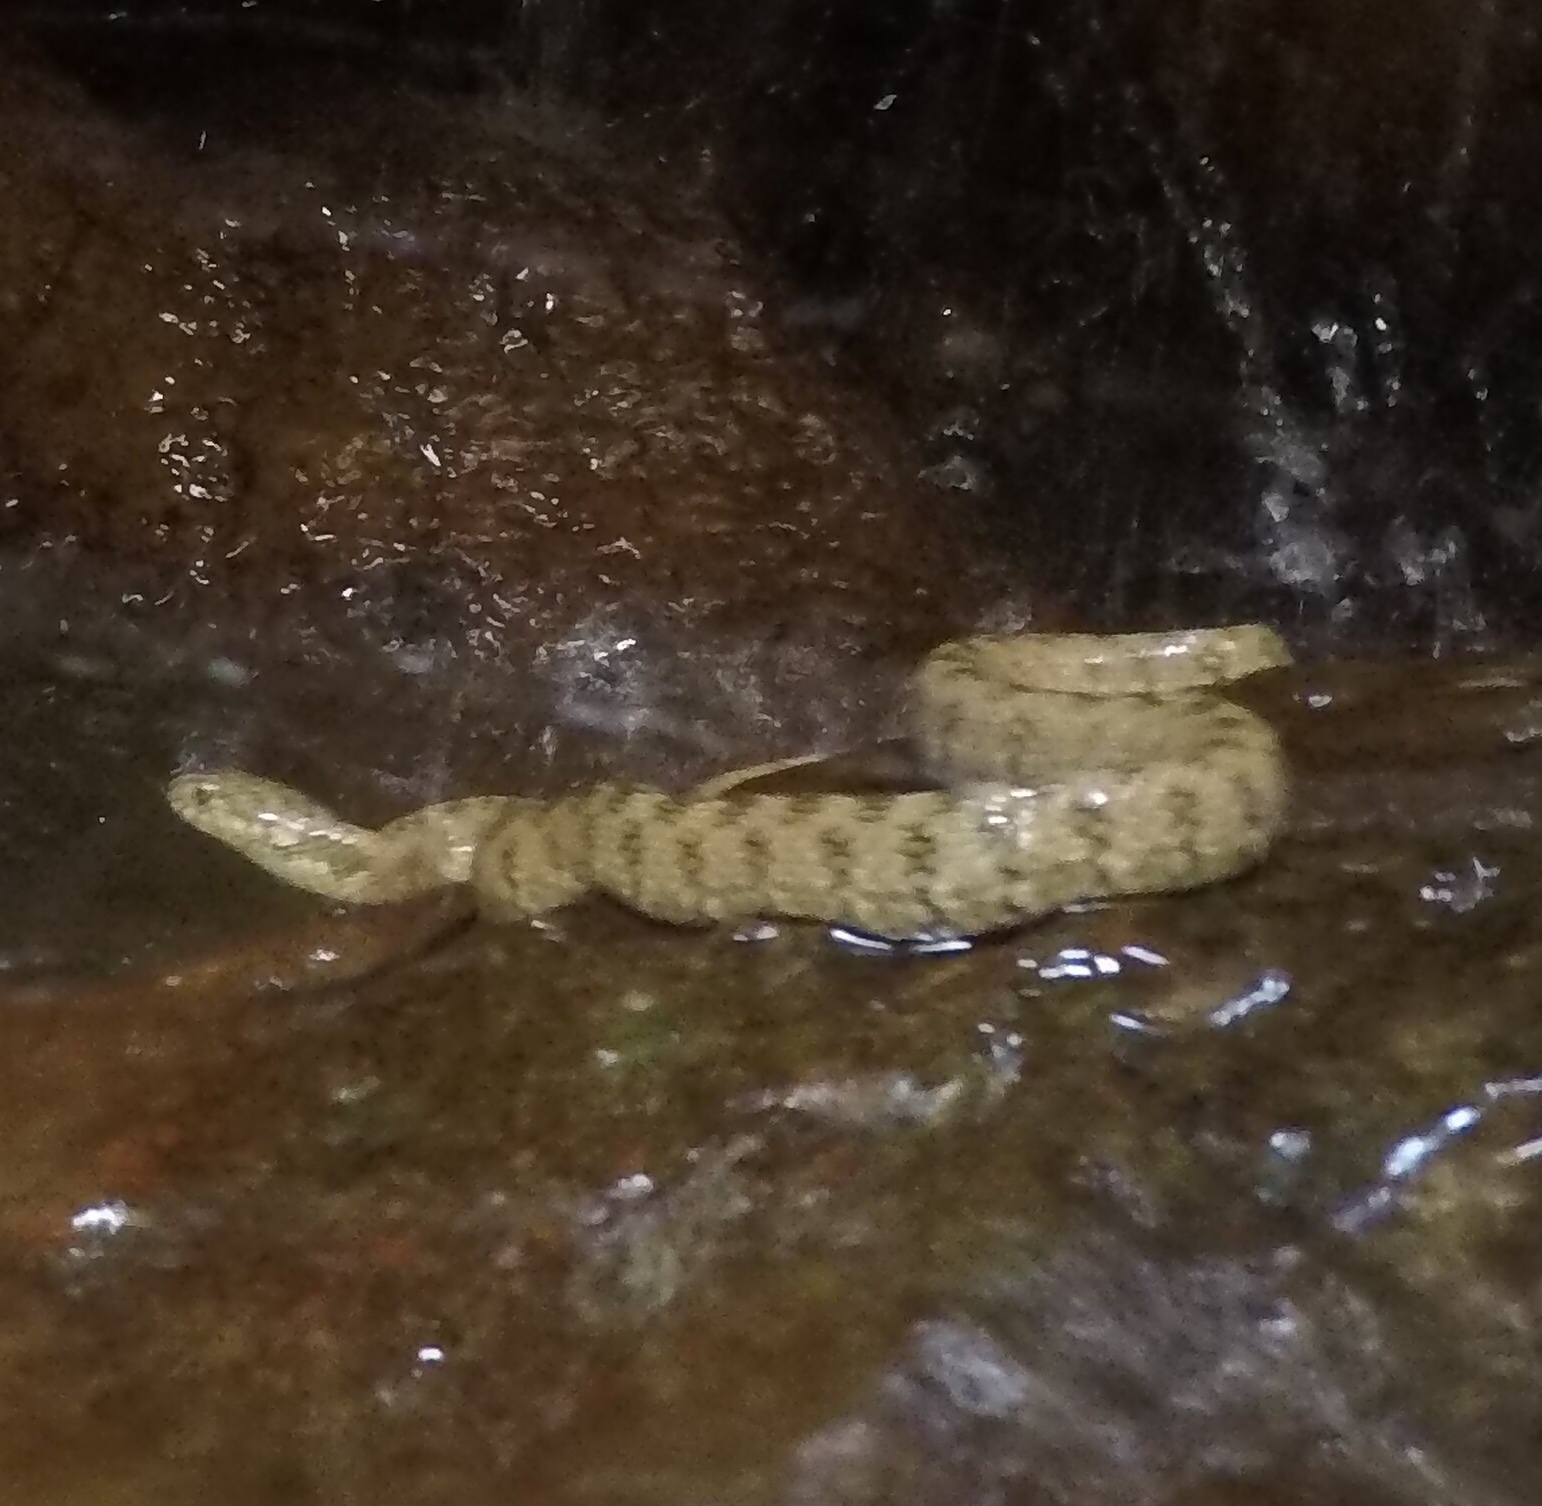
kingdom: Animalia
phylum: Chordata
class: Squamata
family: Colubridae
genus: Natrix
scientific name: Natrix maura
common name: Viperine water snake
